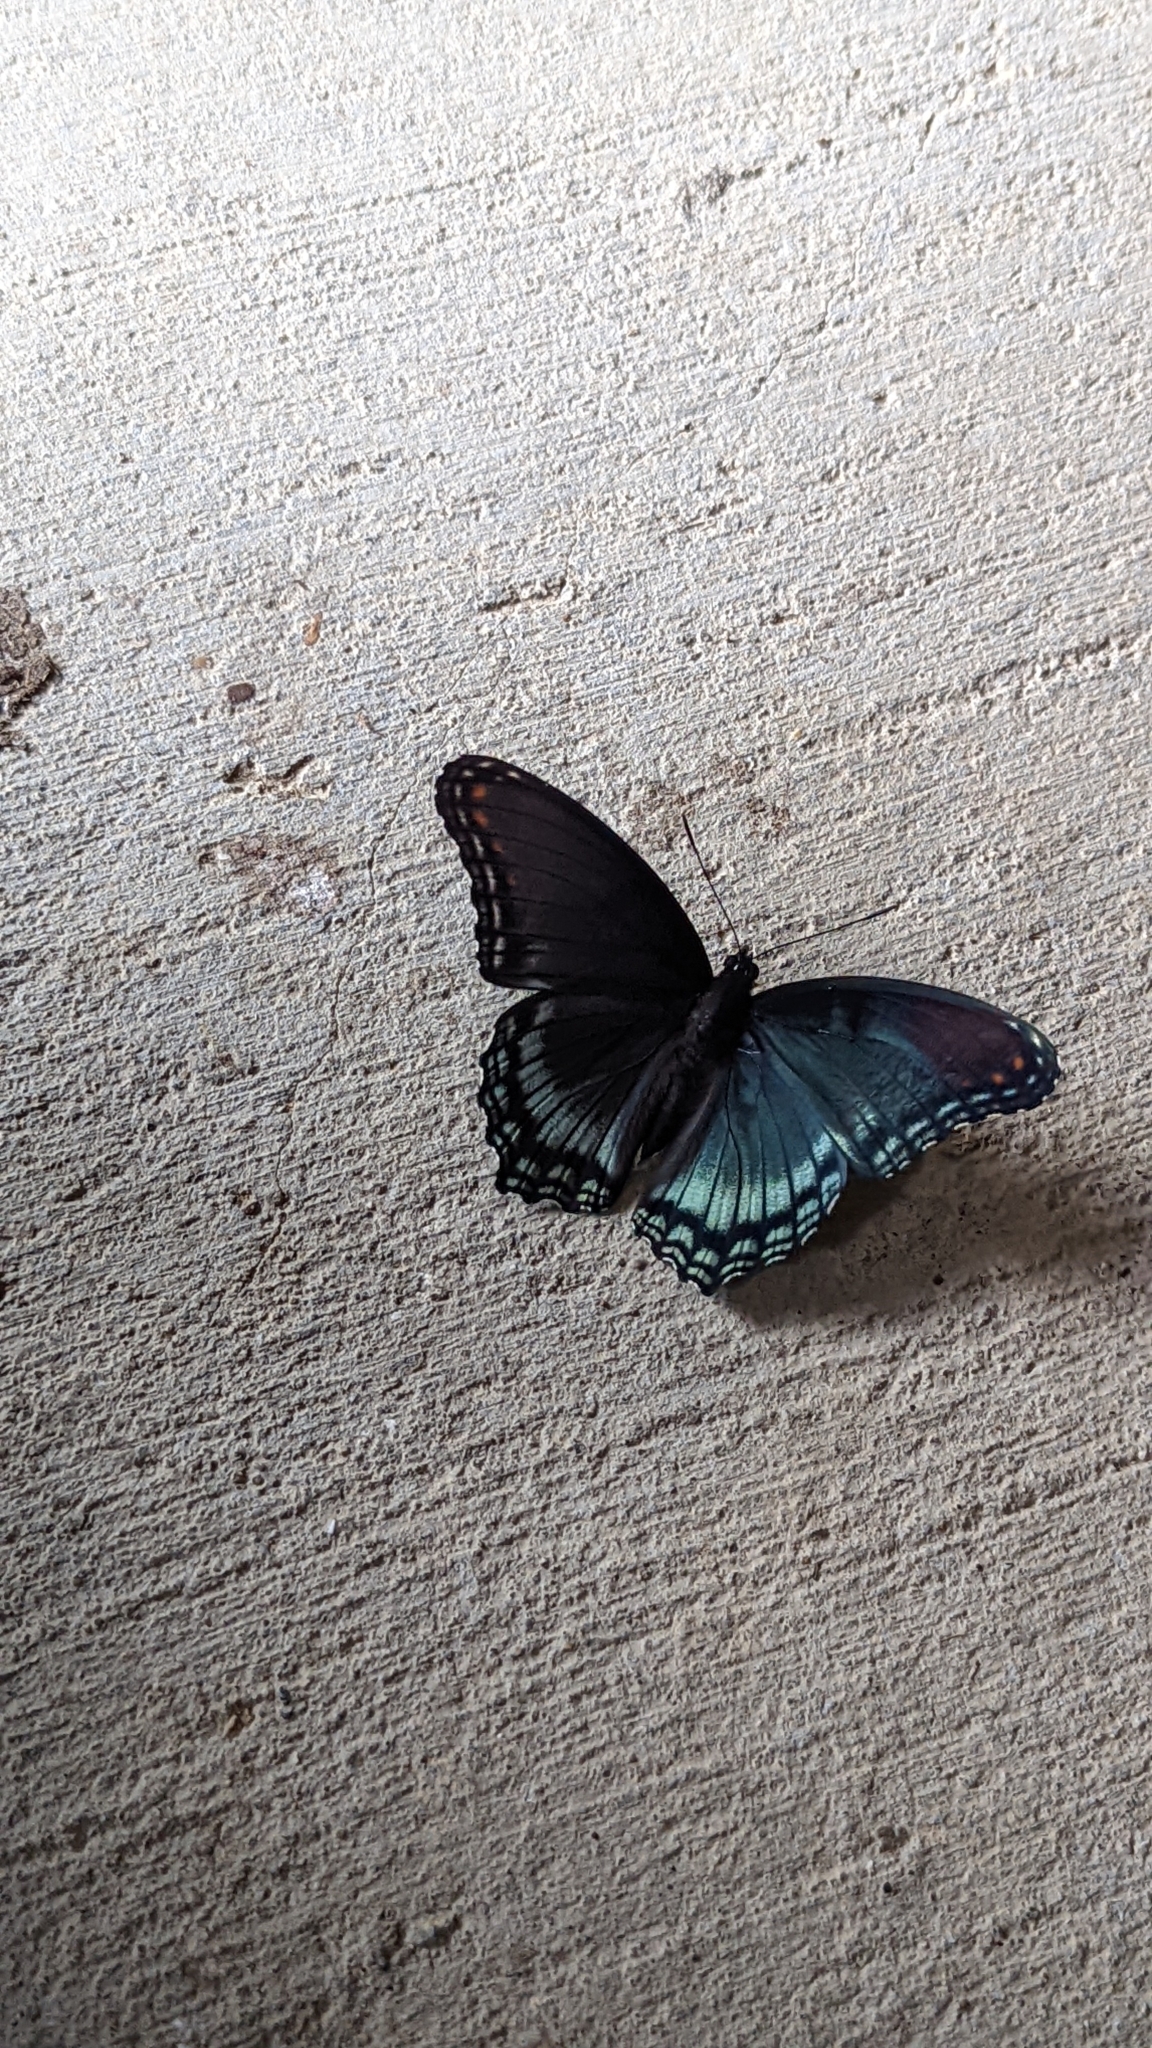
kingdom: Animalia
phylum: Arthropoda
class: Insecta
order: Lepidoptera
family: Nymphalidae
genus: Limenitis
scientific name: Limenitis astyanax
